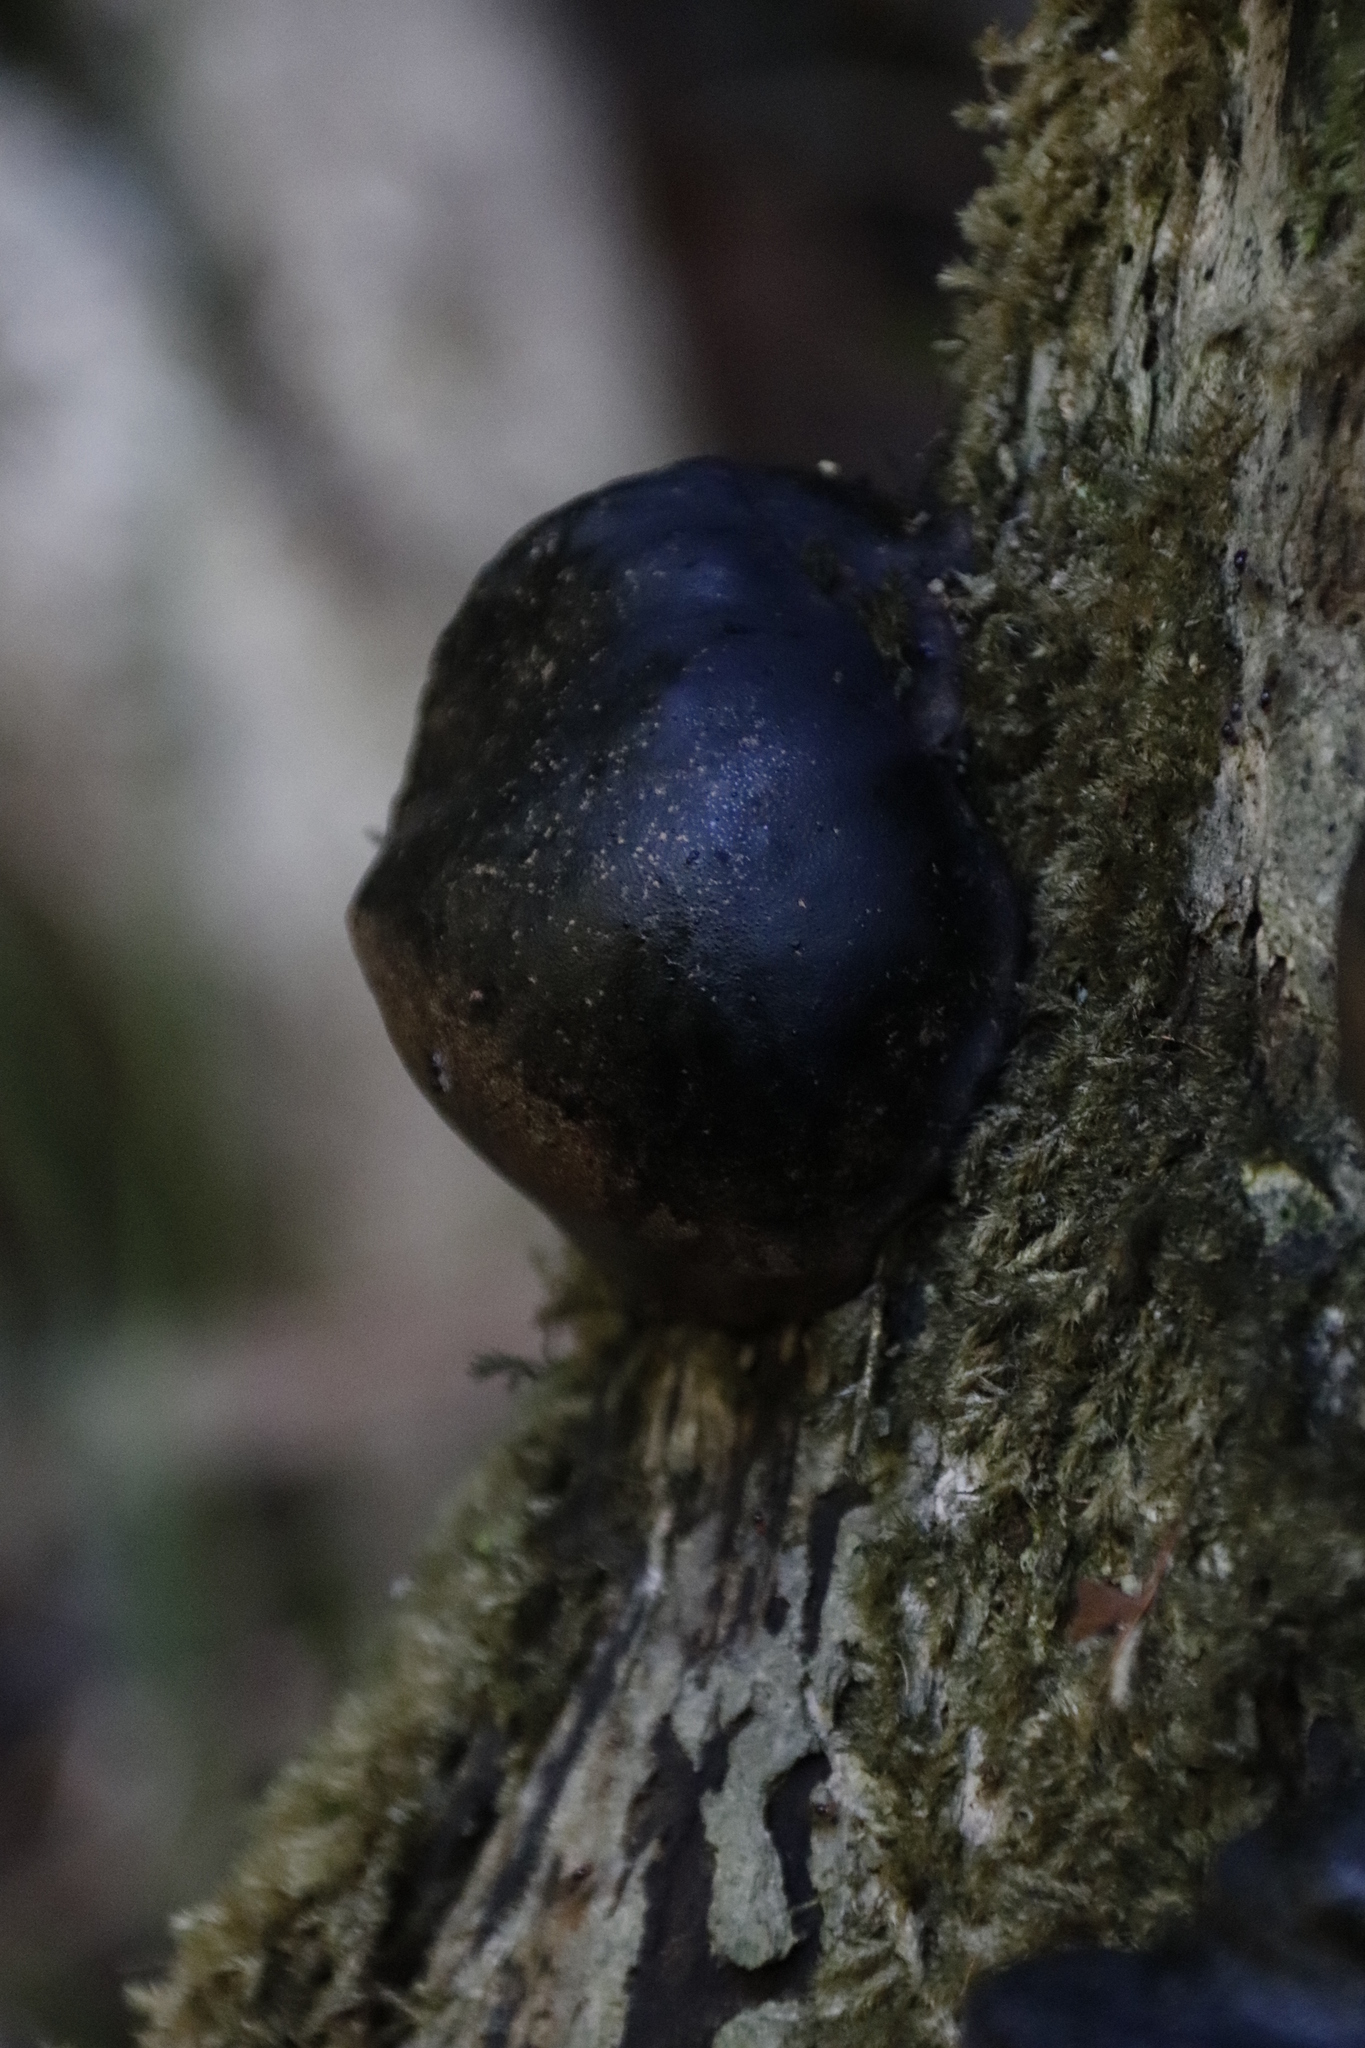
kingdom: Fungi
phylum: Ascomycota
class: Sordariomycetes
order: Xylariales
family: Hypoxylaceae
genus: Daldinia
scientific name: Daldinia concentrica
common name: Cramp balls
